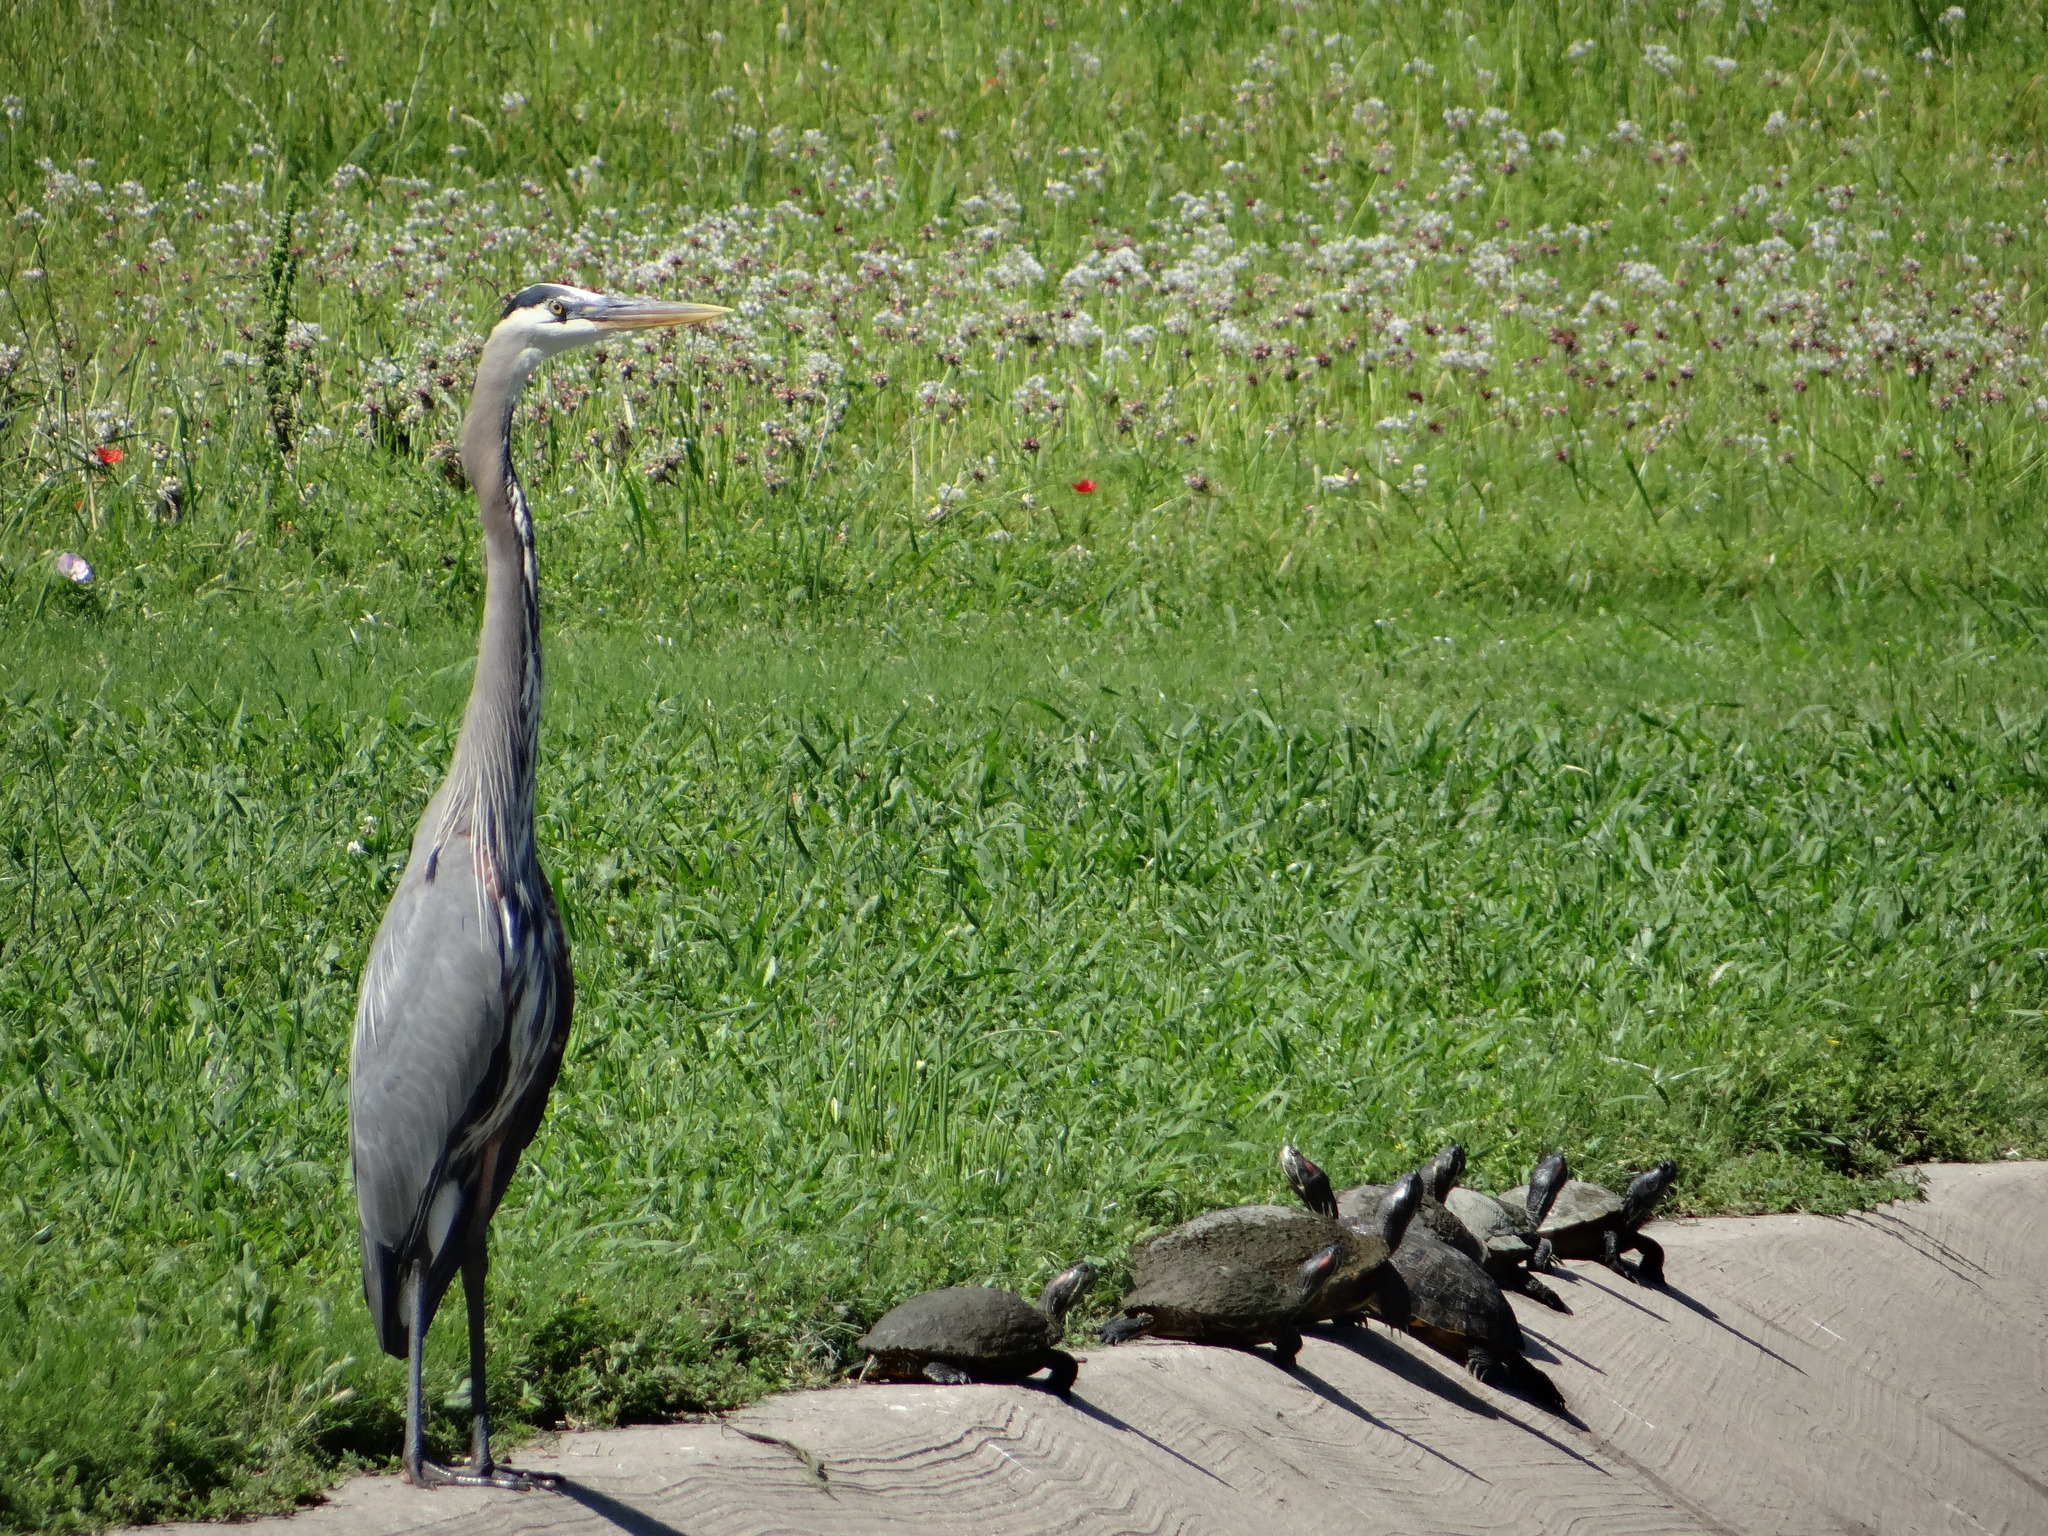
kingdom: Animalia
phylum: Chordata
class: Aves
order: Pelecaniformes
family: Ardeidae
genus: Ardea
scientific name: Ardea herodias
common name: Great blue heron
